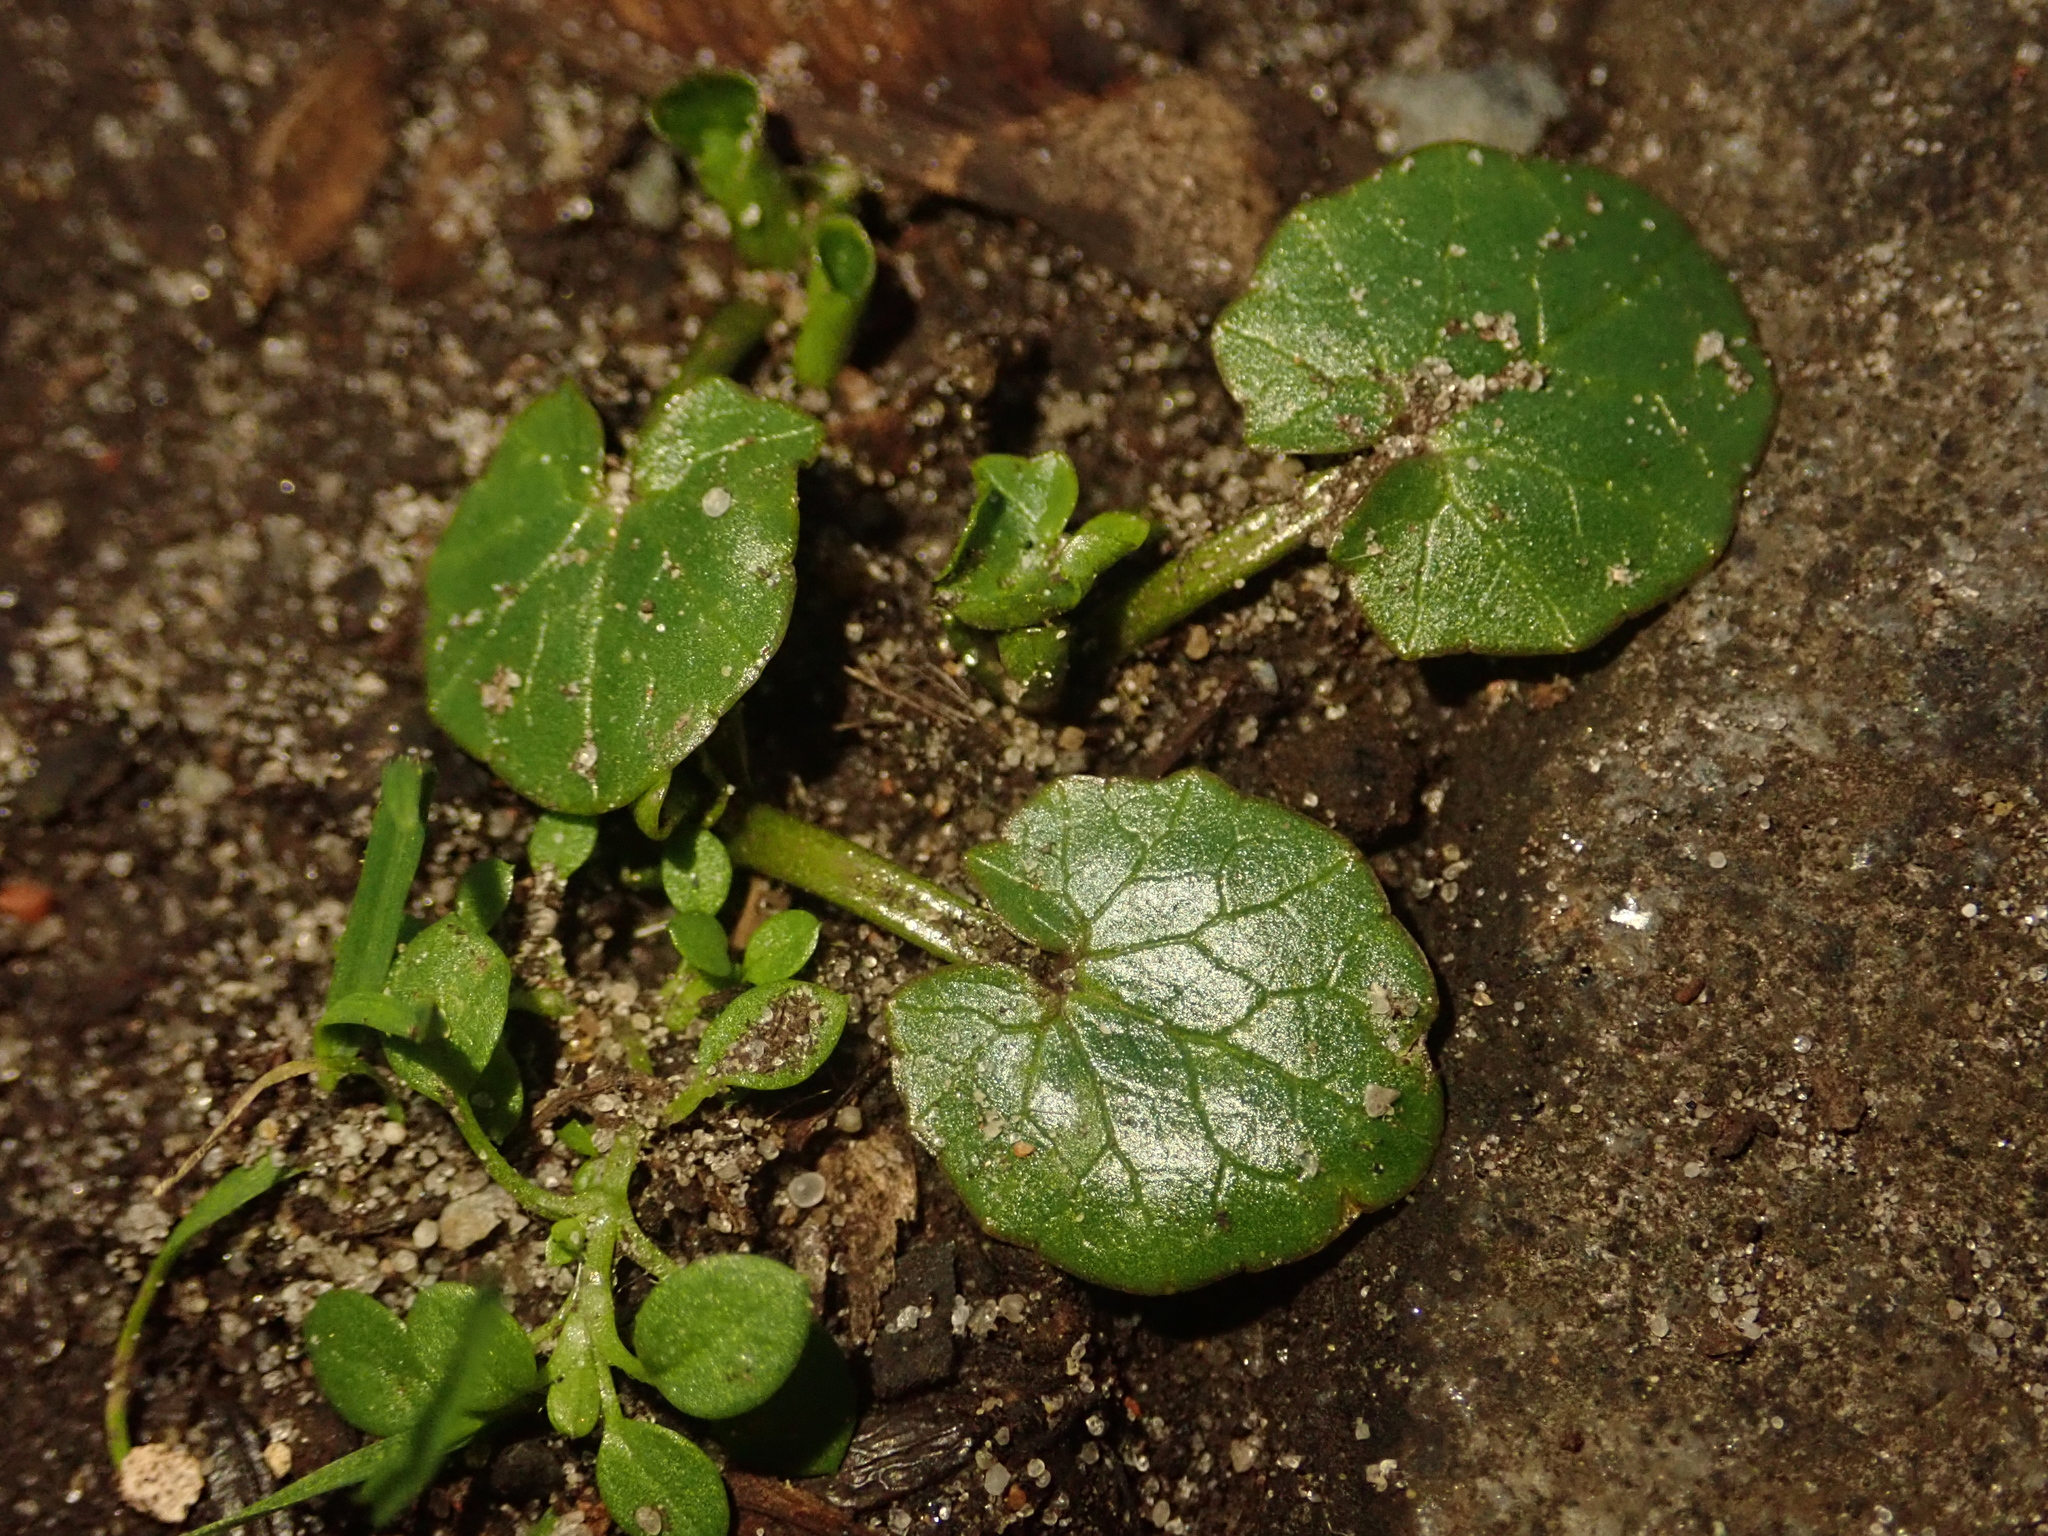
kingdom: Plantae
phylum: Tracheophyta
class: Magnoliopsida
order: Ranunculales
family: Ranunculaceae
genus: Ficaria
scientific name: Ficaria verna
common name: Lesser celandine
